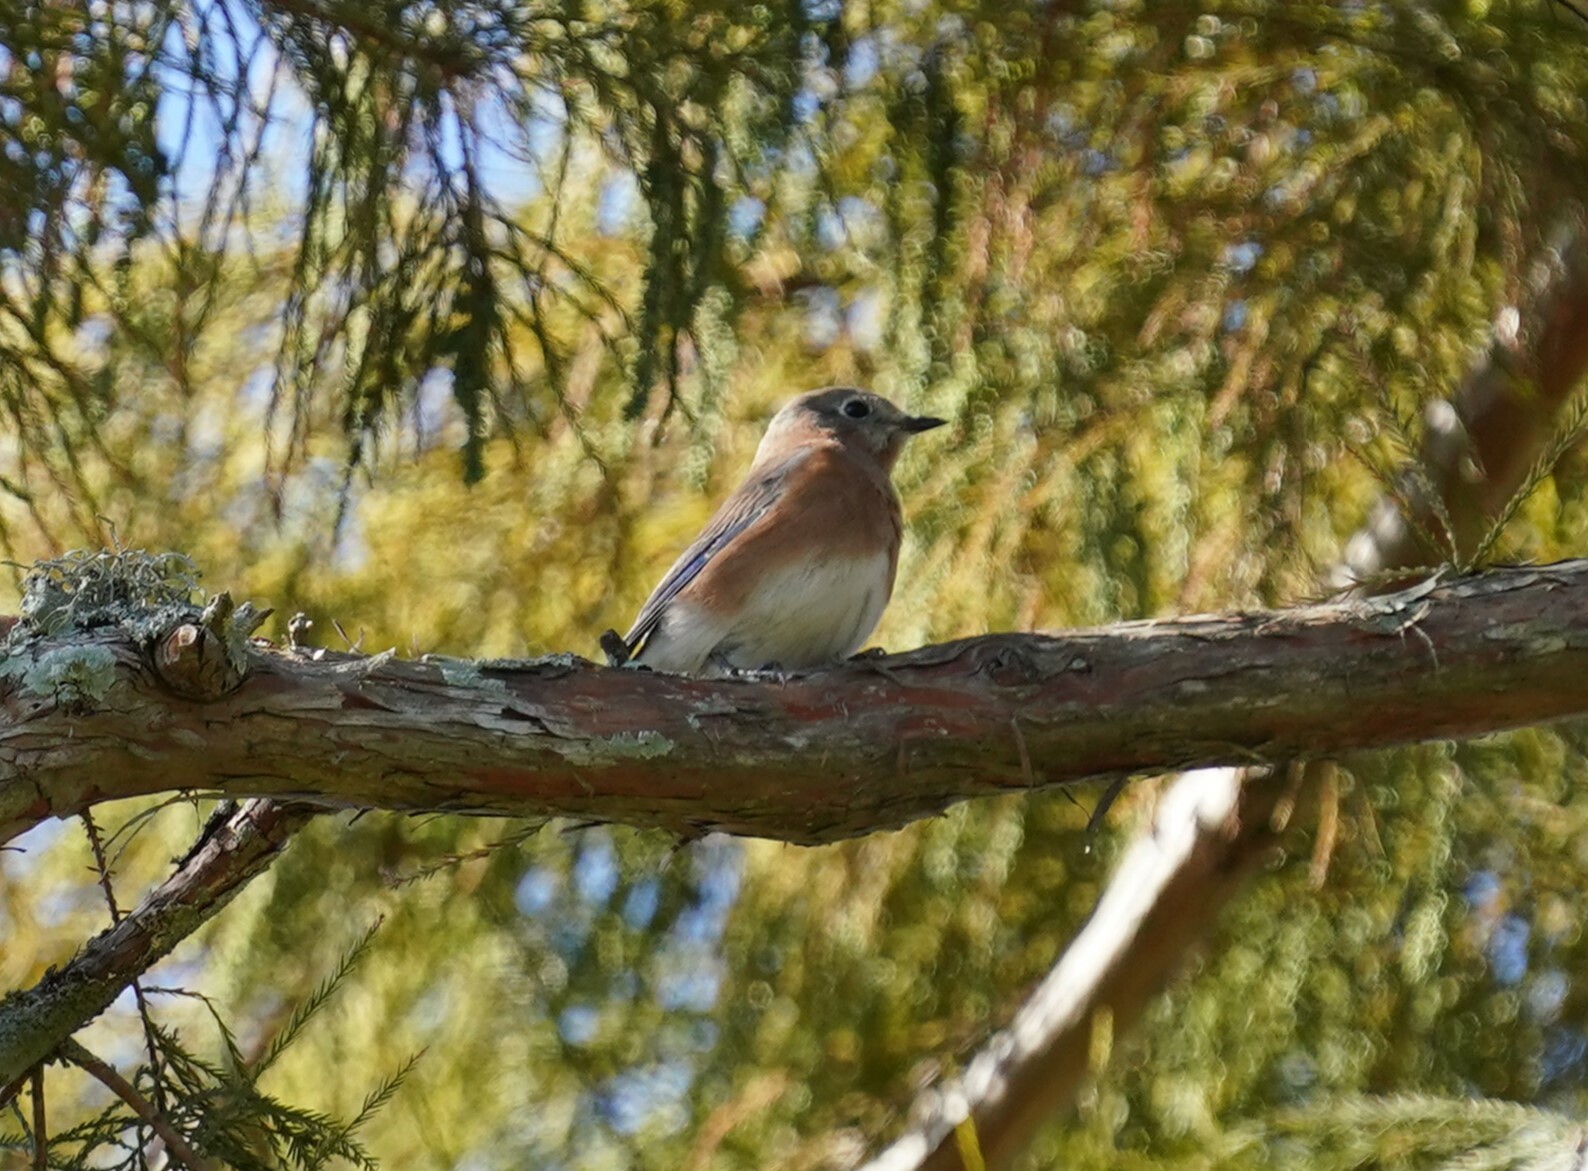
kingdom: Animalia
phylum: Chordata
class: Aves
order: Passeriformes
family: Turdidae
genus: Sialia
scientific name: Sialia sialis
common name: Eastern bluebird
